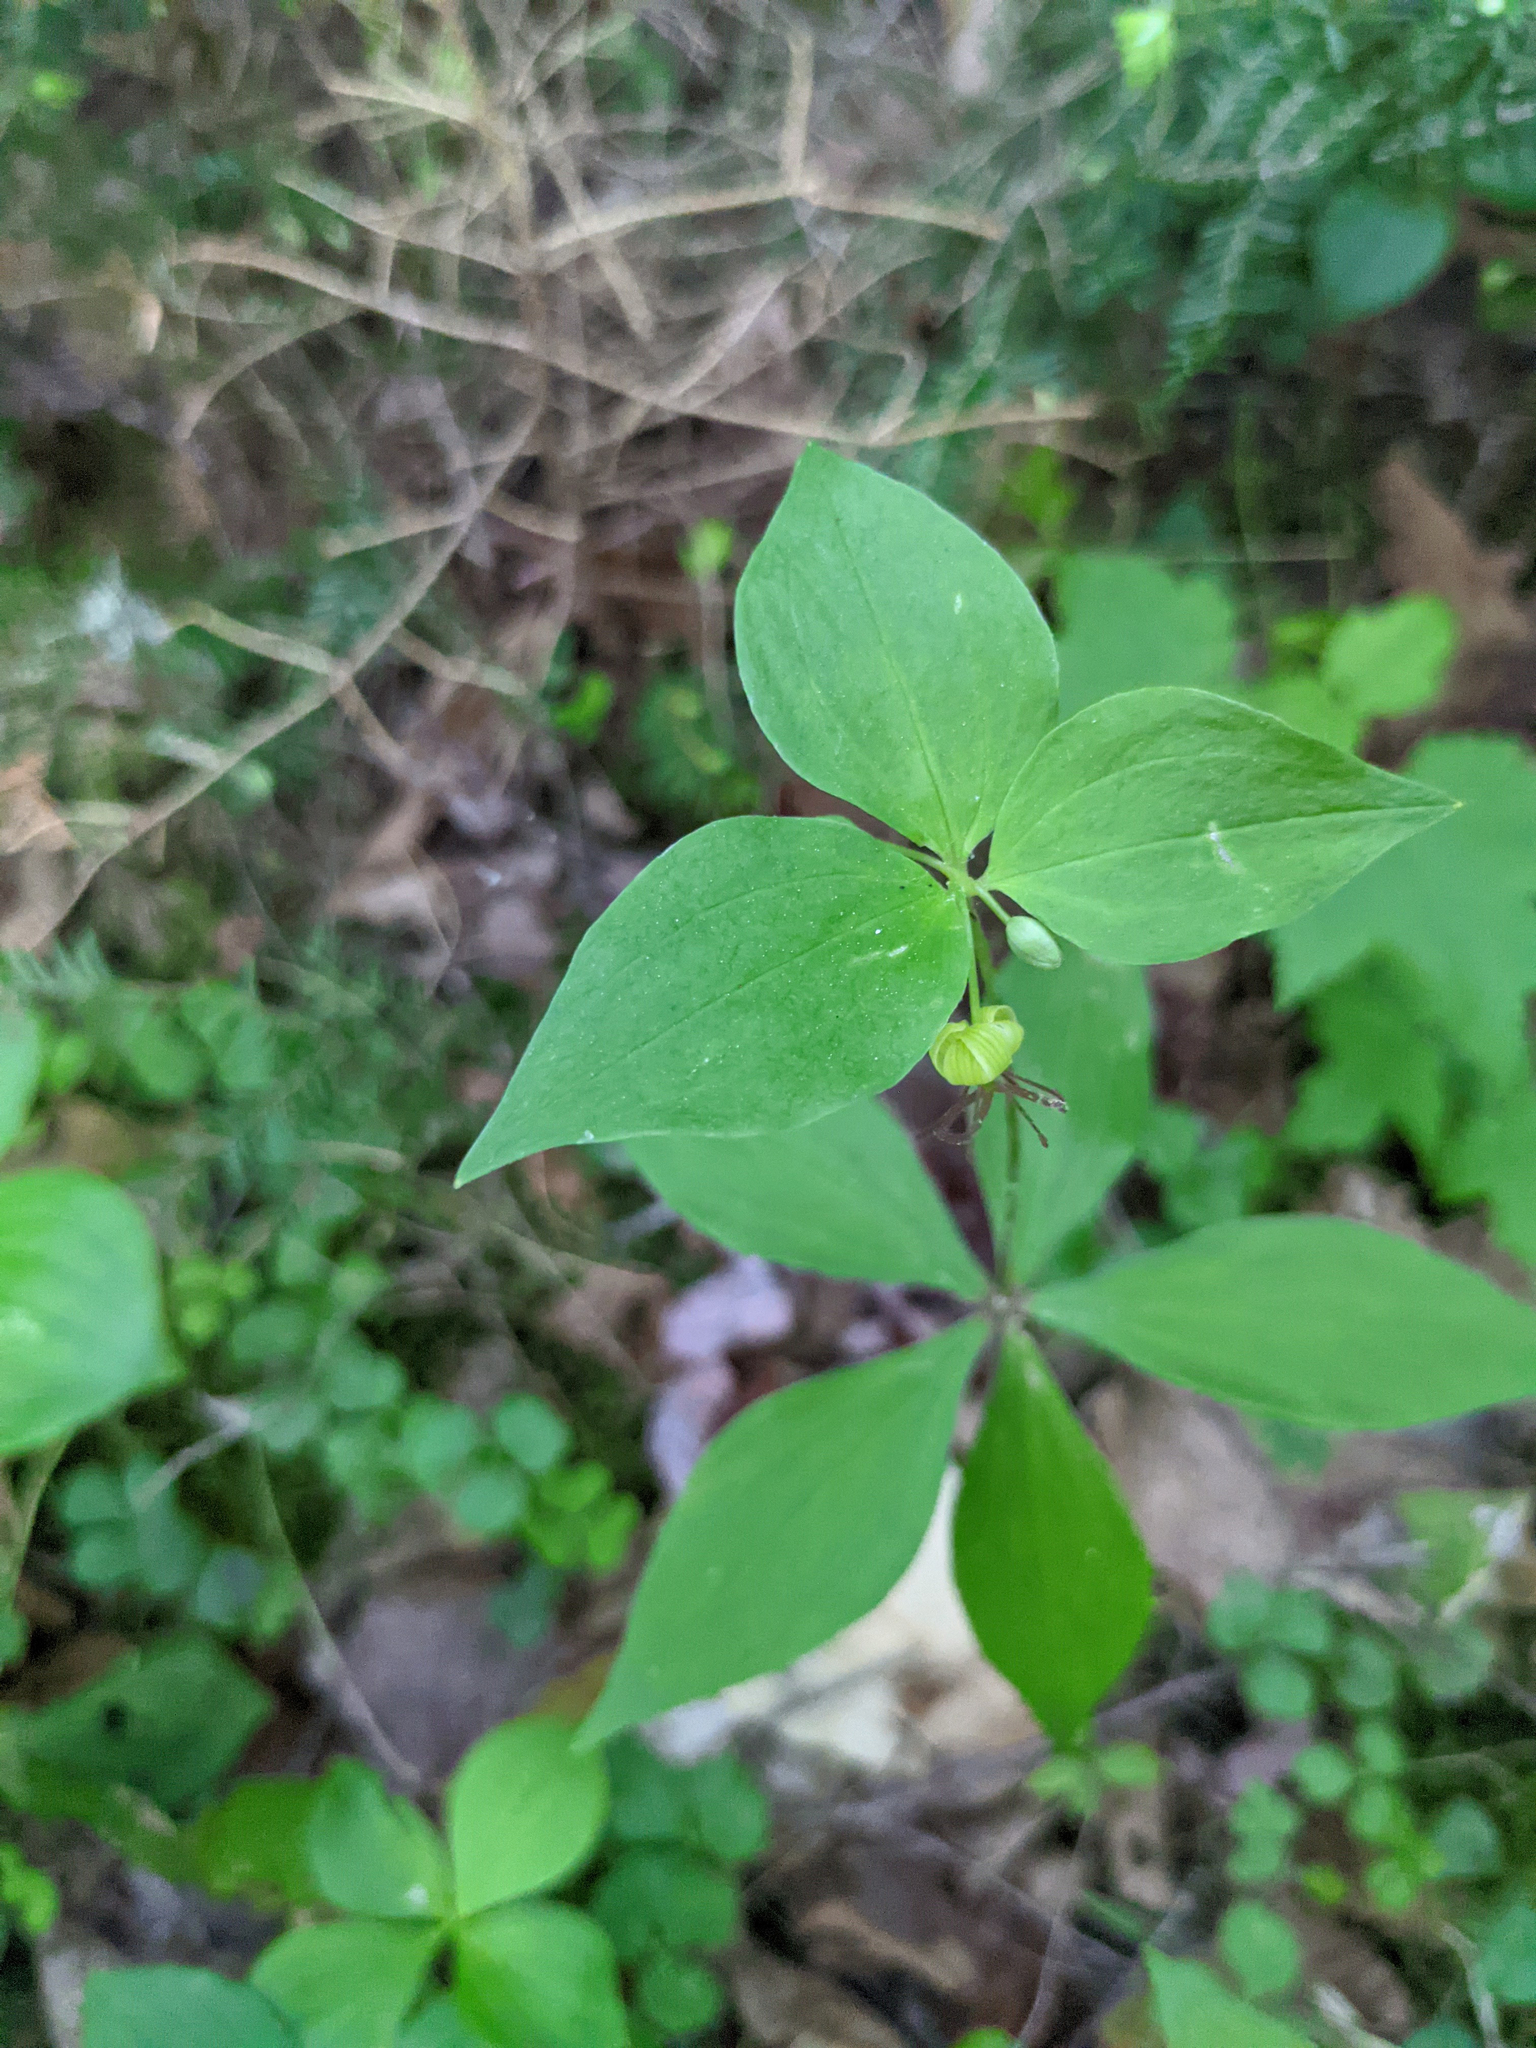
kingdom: Plantae
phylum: Tracheophyta
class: Liliopsida
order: Liliales
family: Liliaceae
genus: Medeola
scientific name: Medeola virginiana
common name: Indian cucumber-root
